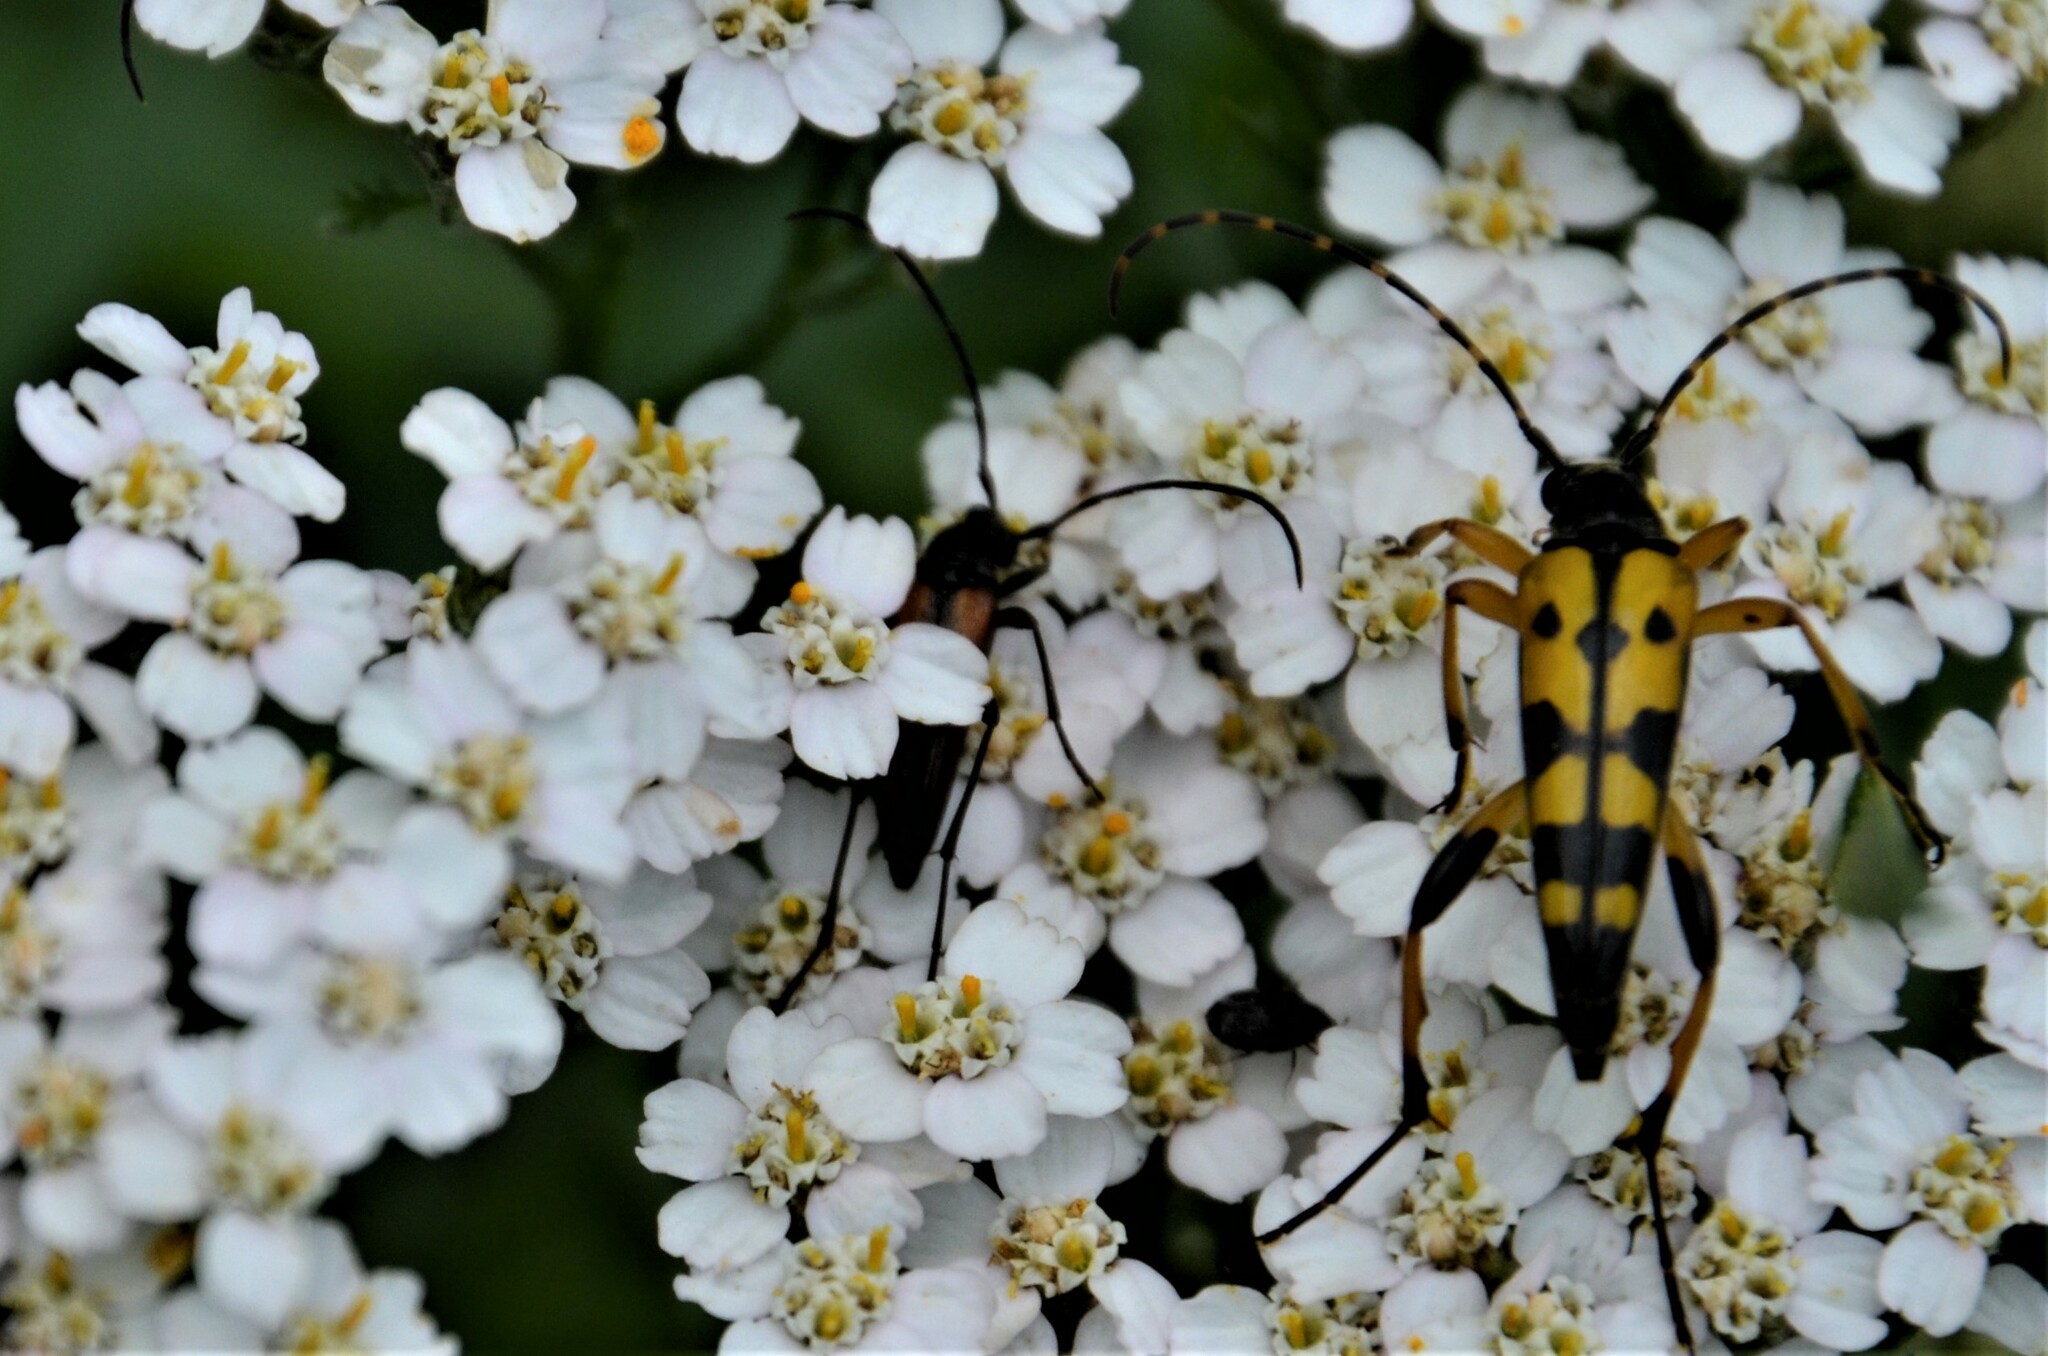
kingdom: Animalia
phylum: Arthropoda
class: Insecta
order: Coleoptera
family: Cerambycidae
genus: Rutpela
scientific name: Rutpela maculata
